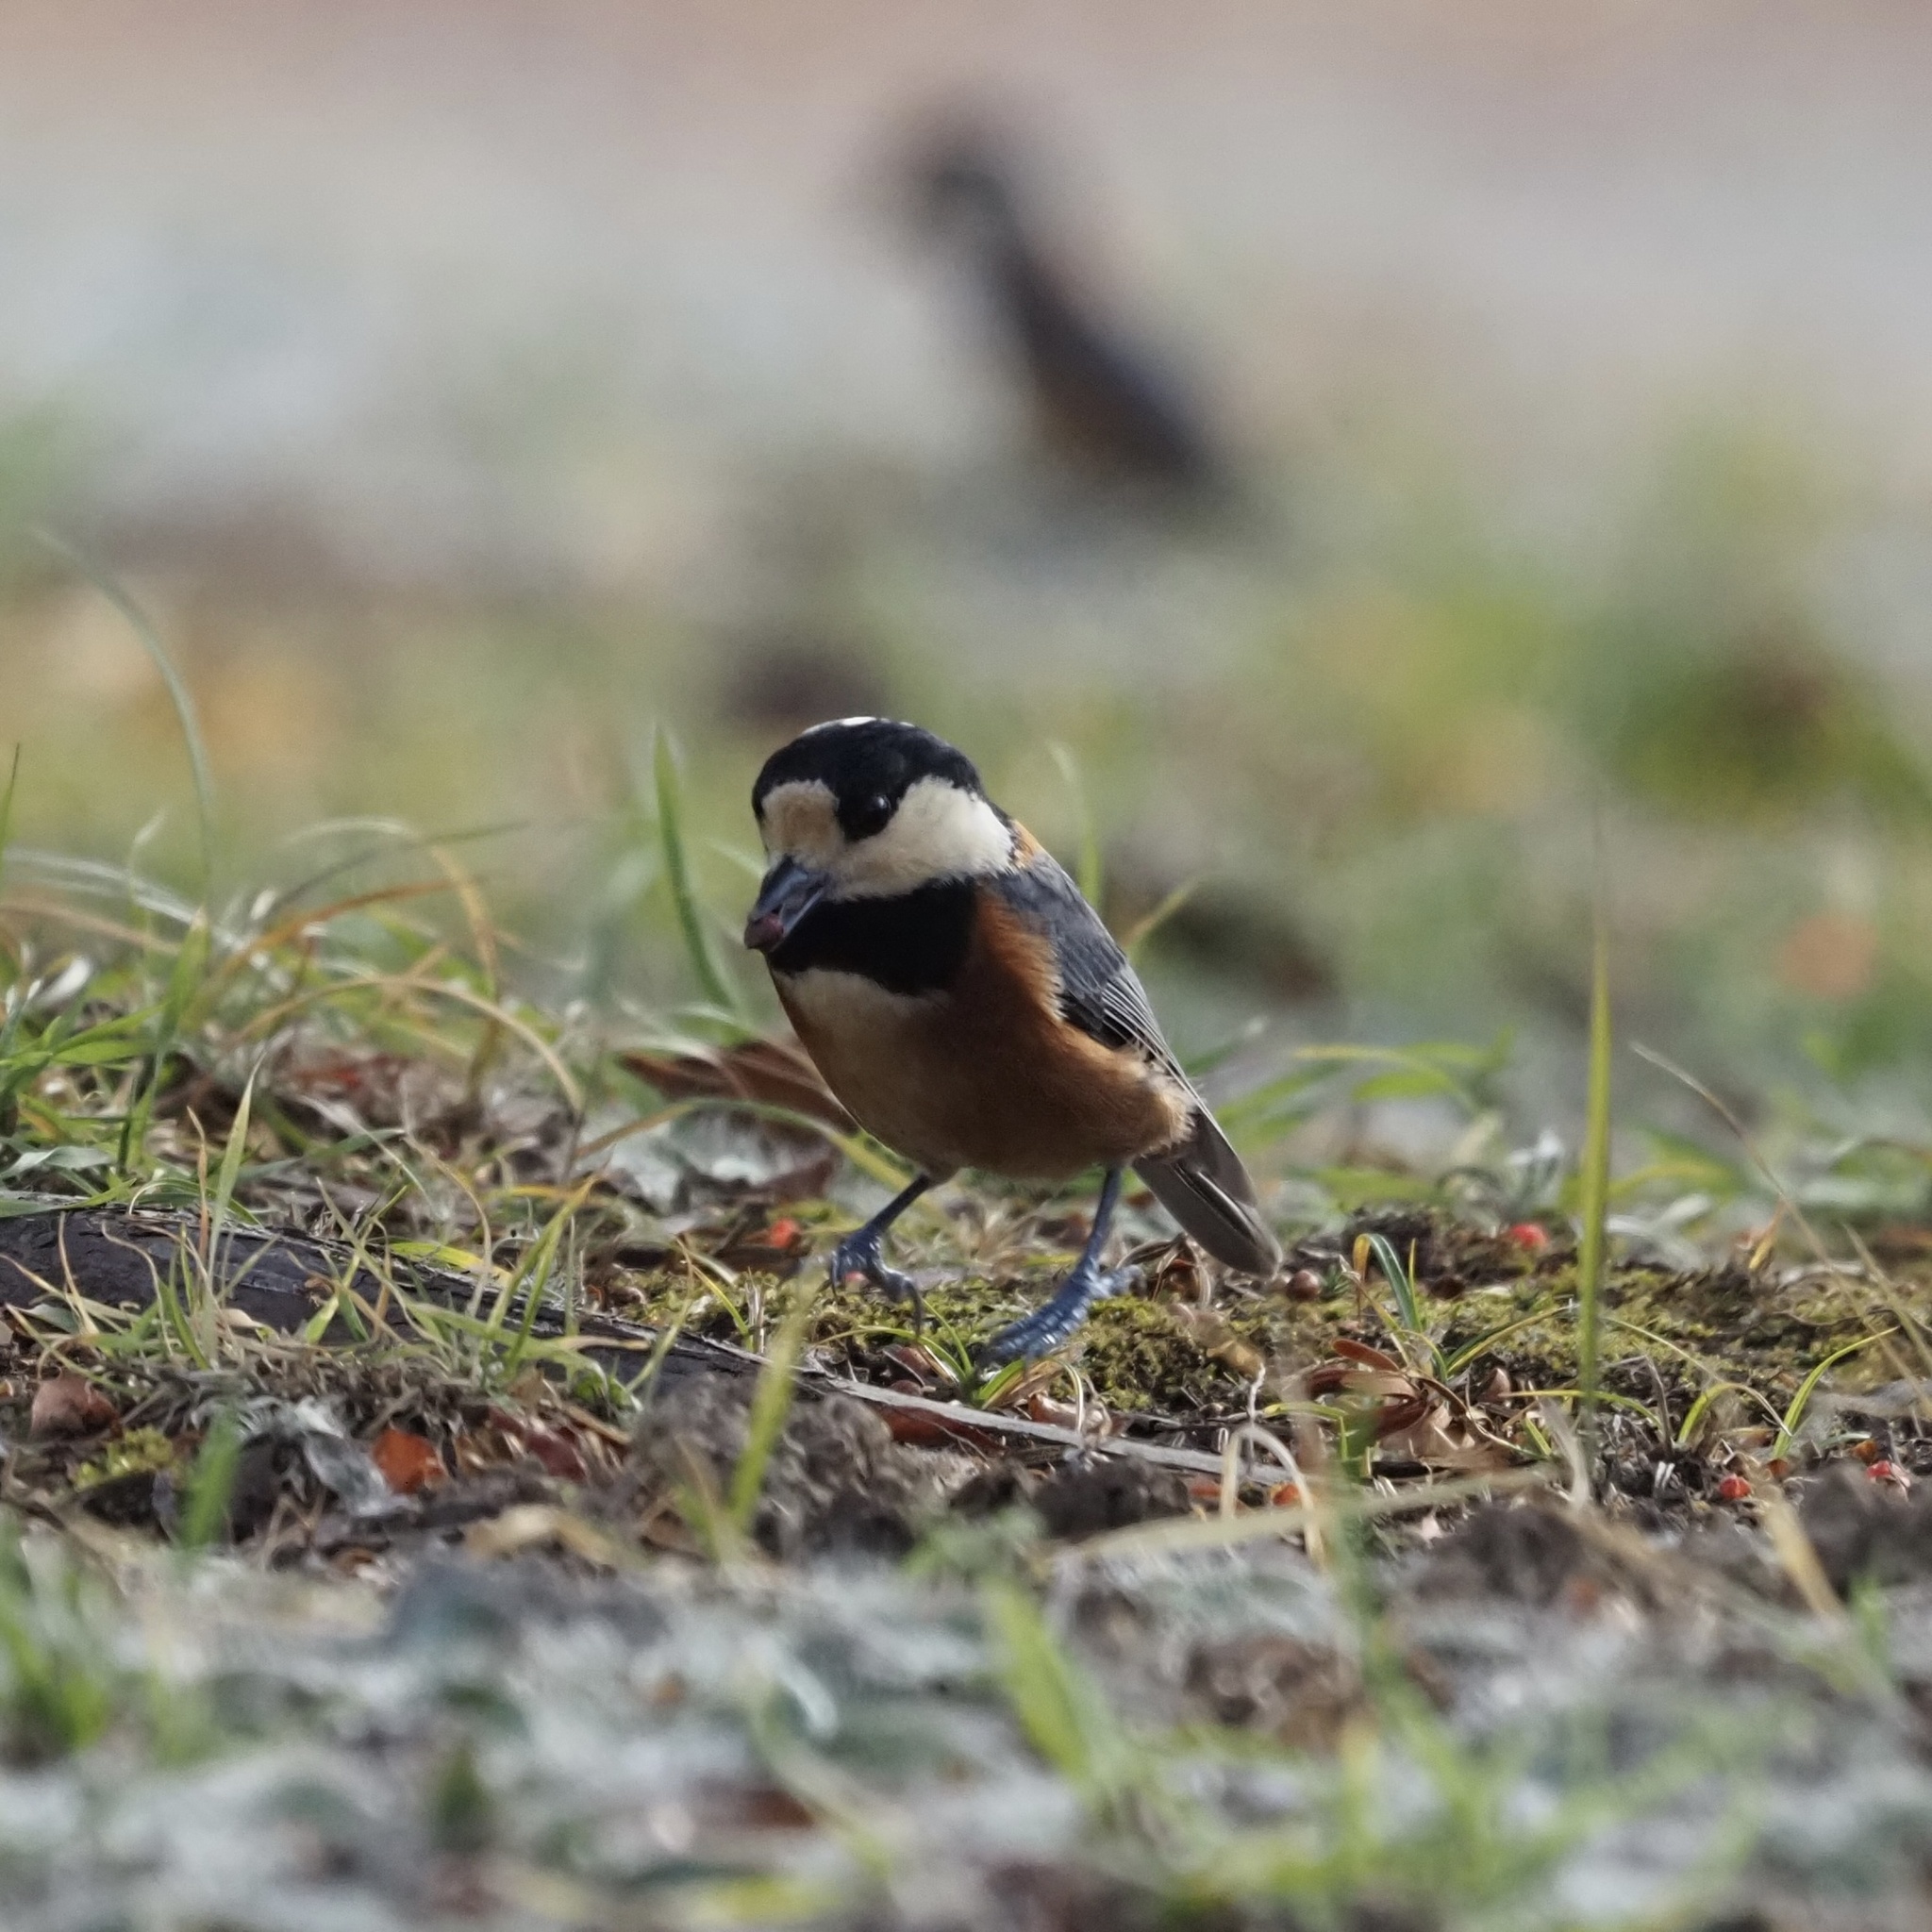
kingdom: Animalia
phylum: Chordata
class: Aves
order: Passeriformes
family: Paridae
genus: Poecile
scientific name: Poecile varius
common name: Varied tit
